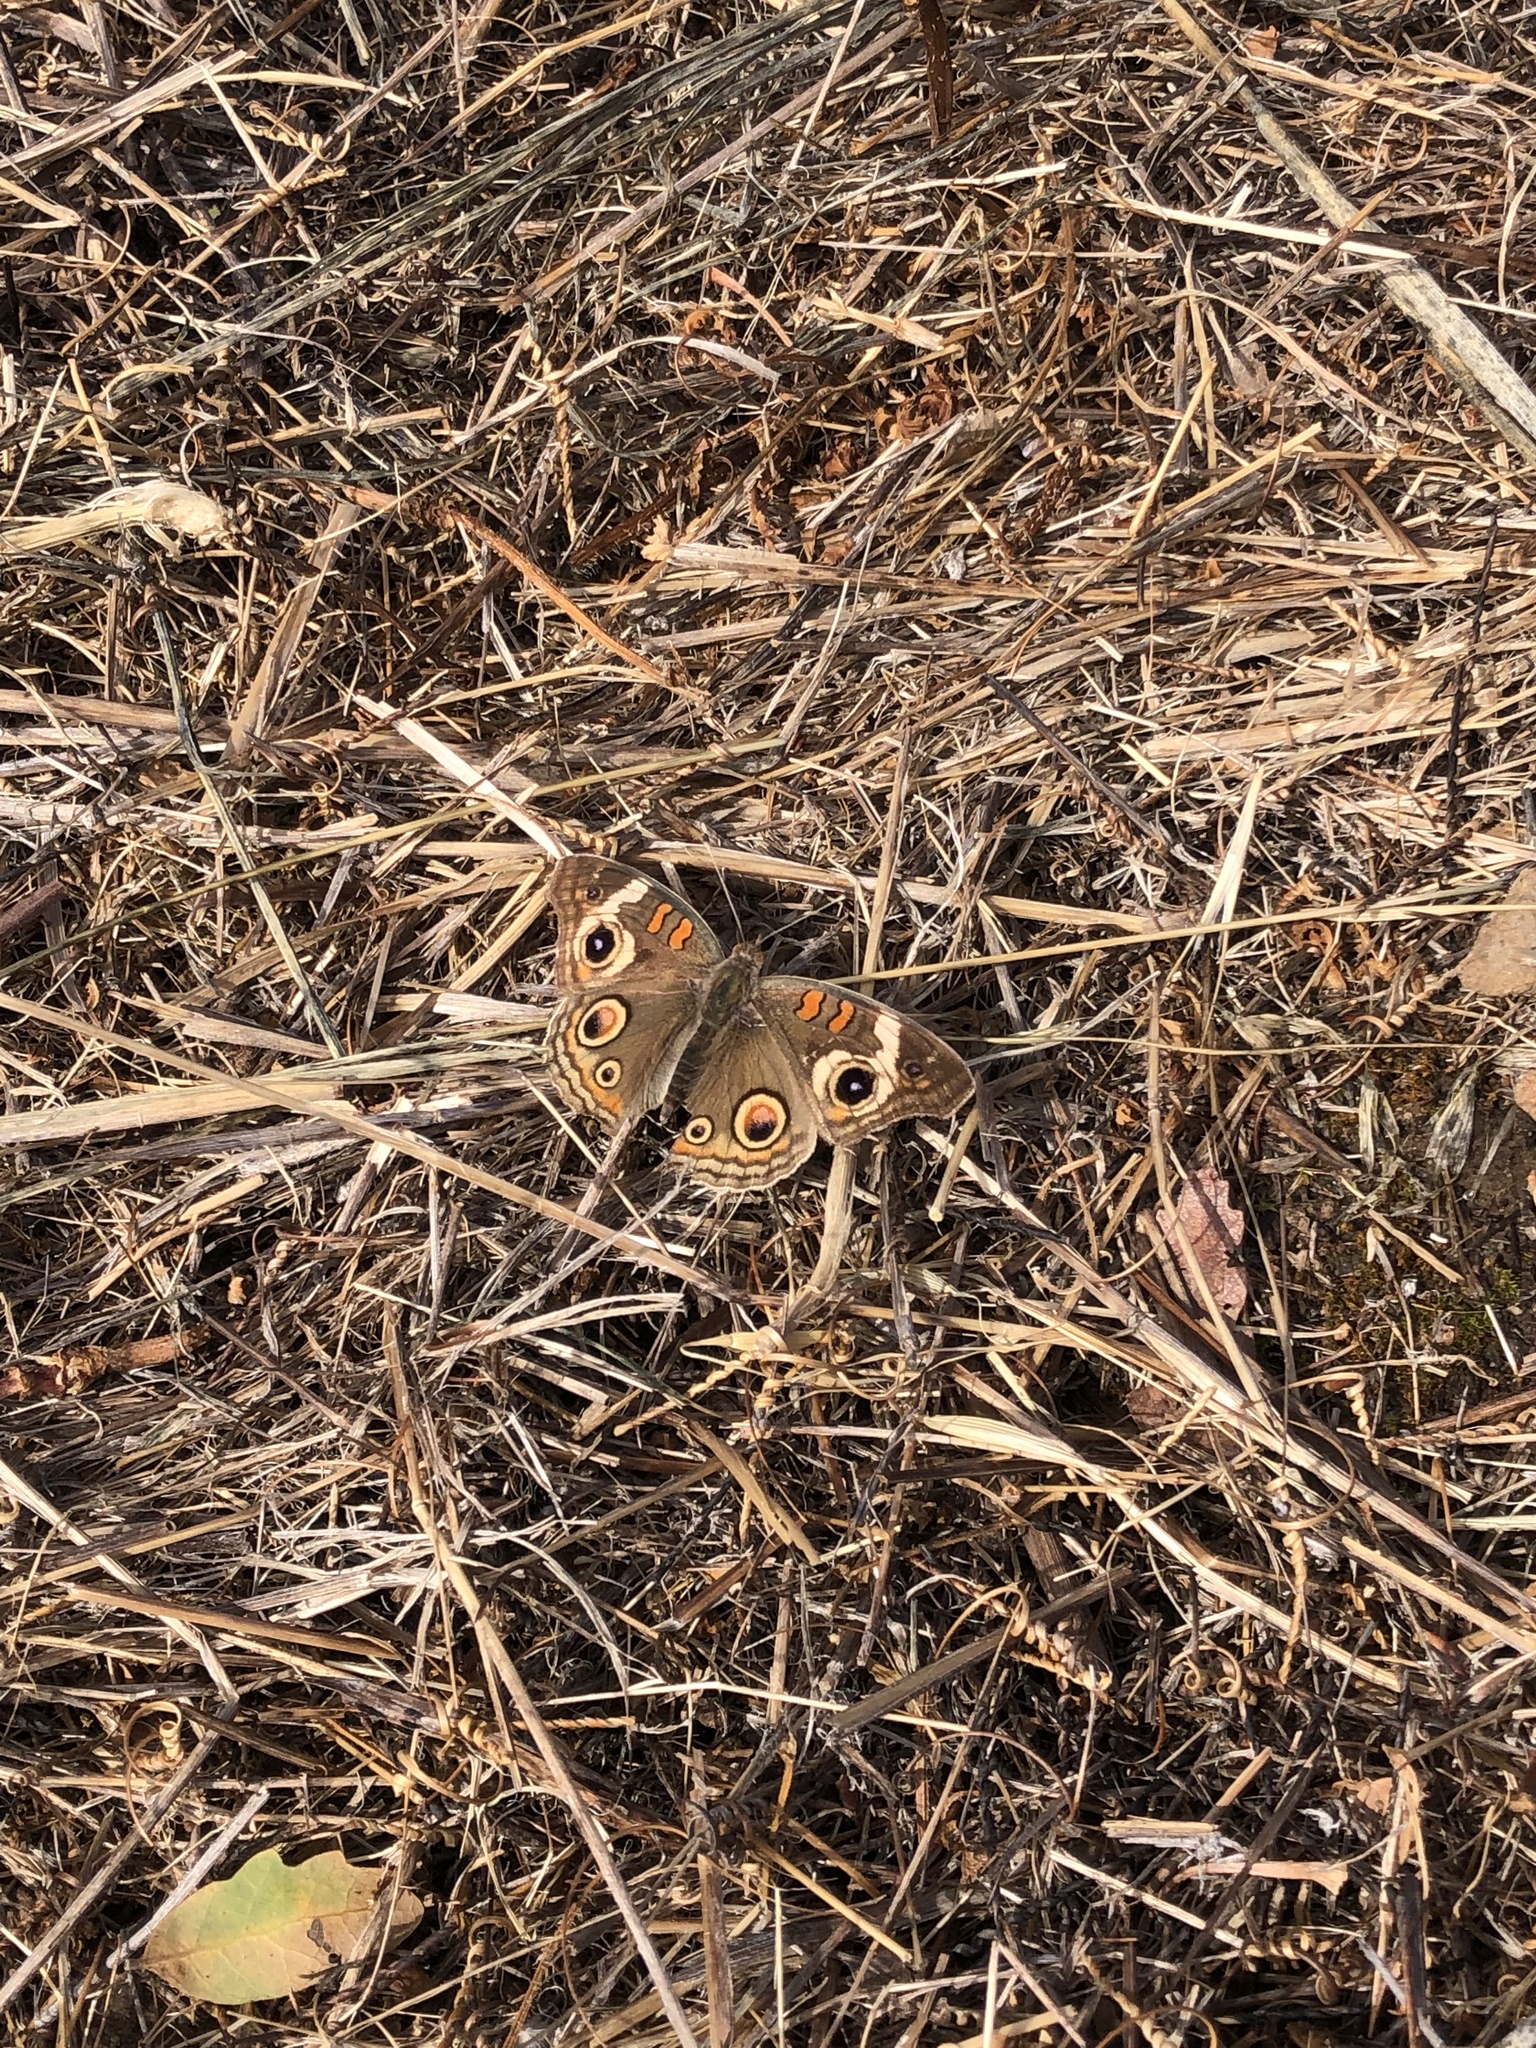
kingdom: Animalia
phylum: Arthropoda
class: Insecta
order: Lepidoptera
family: Nymphalidae
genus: Junonia
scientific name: Junonia grisea
